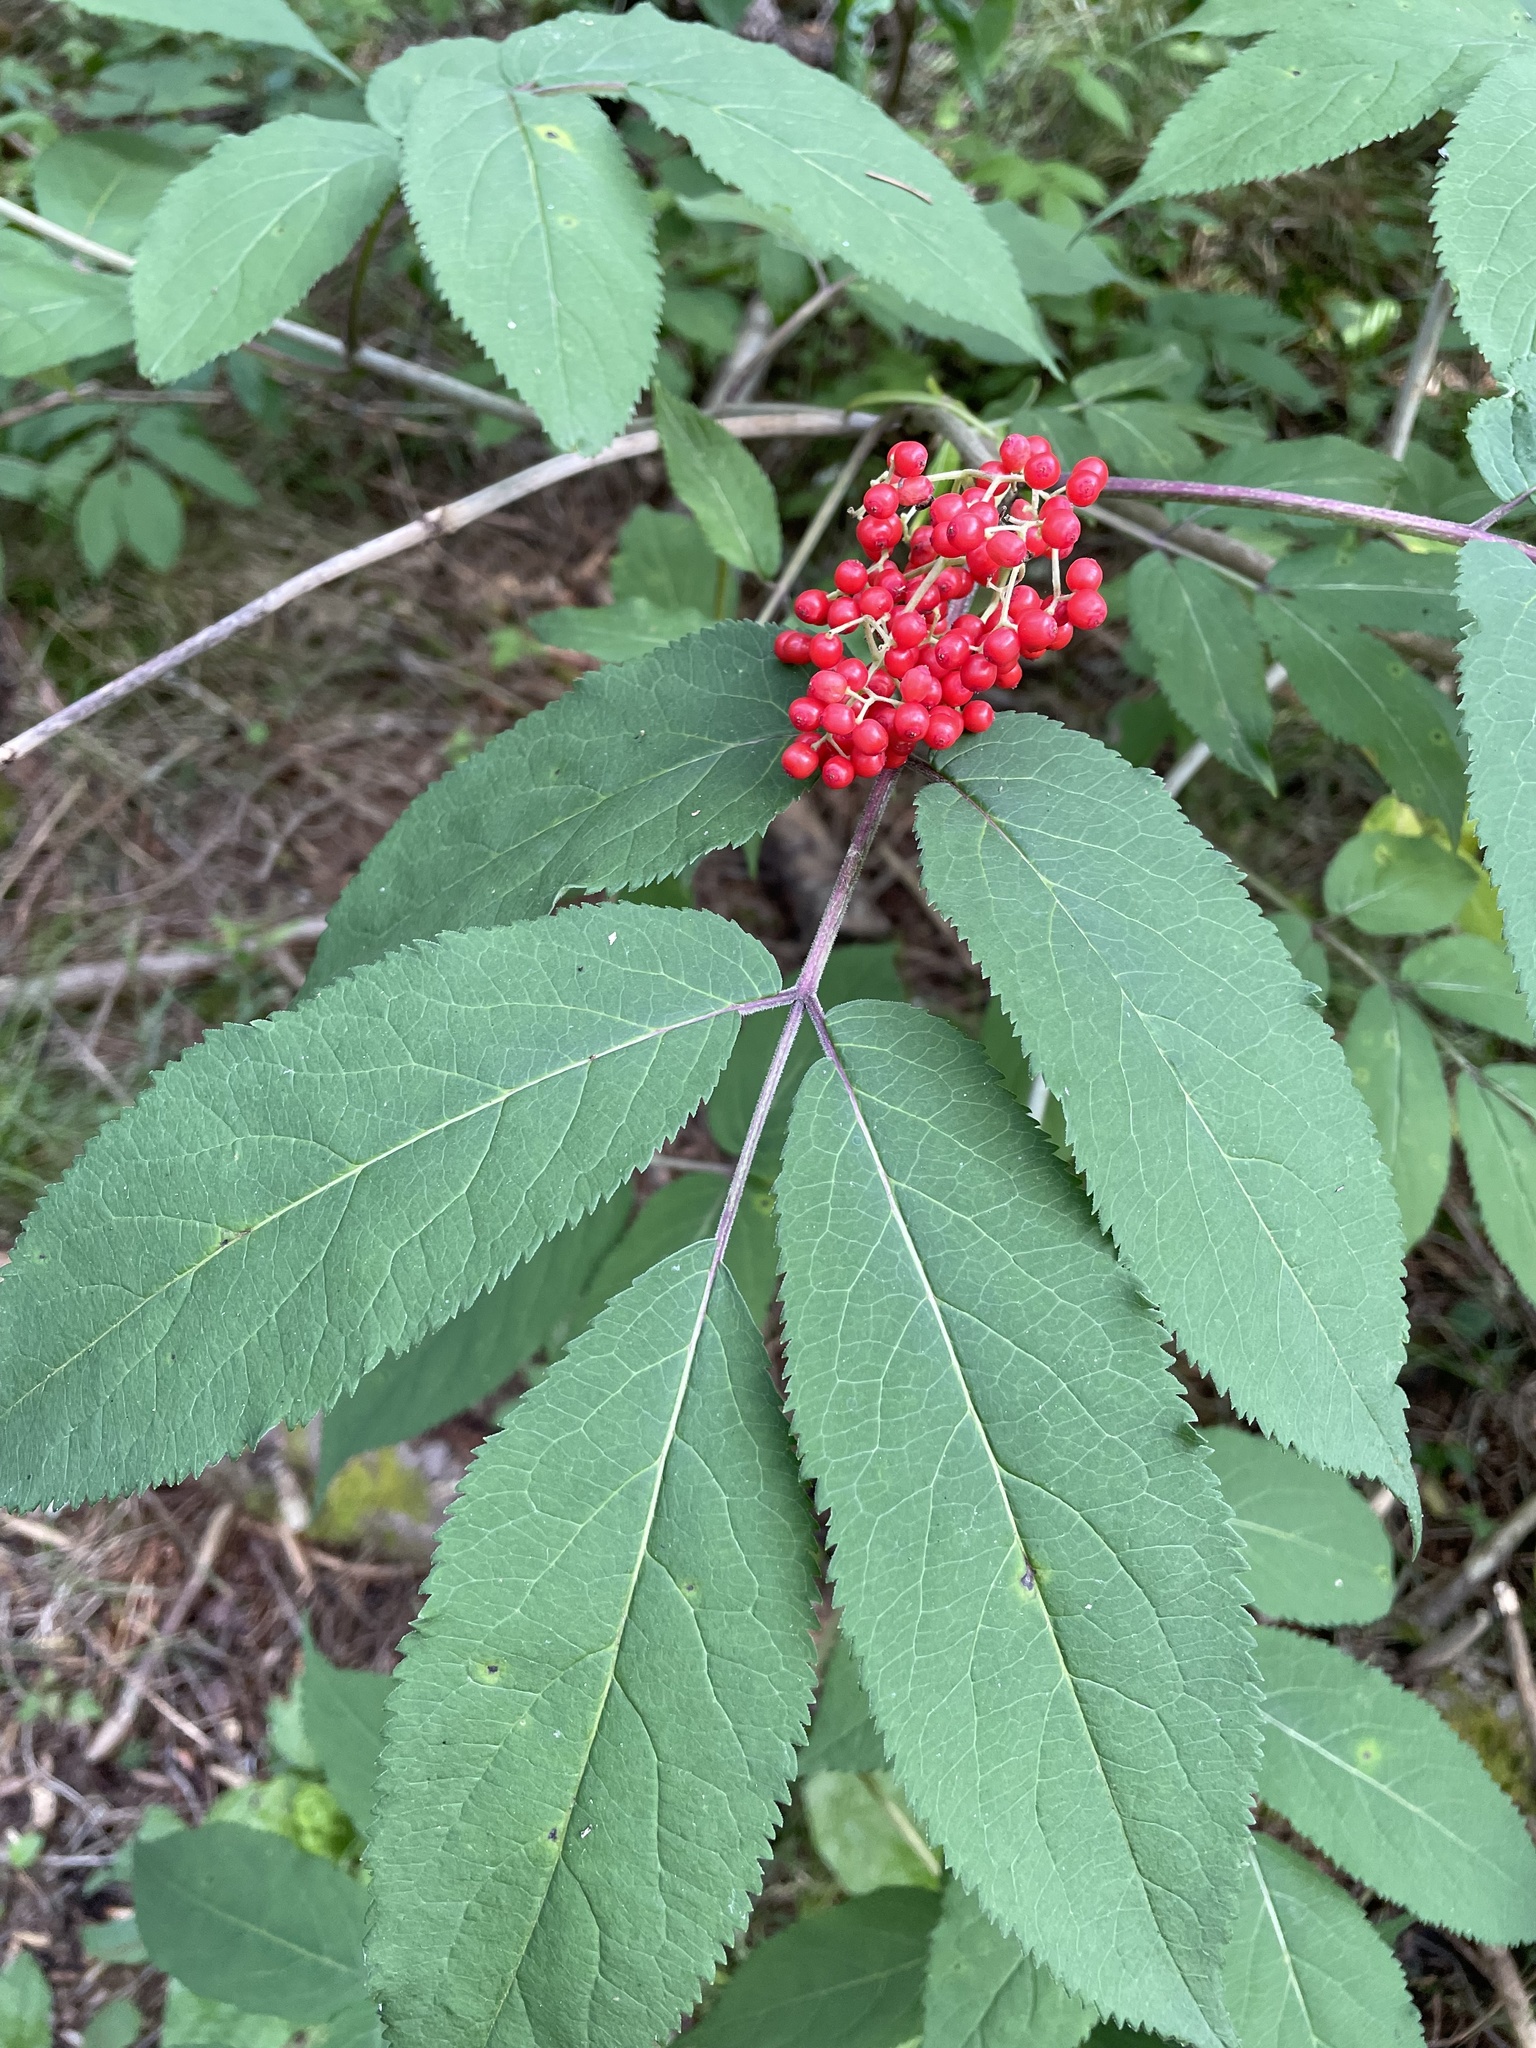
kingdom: Plantae
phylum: Tracheophyta
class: Magnoliopsida
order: Dipsacales
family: Viburnaceae
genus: Sambucus
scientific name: Sambucus racemosa
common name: Red-berried elder
